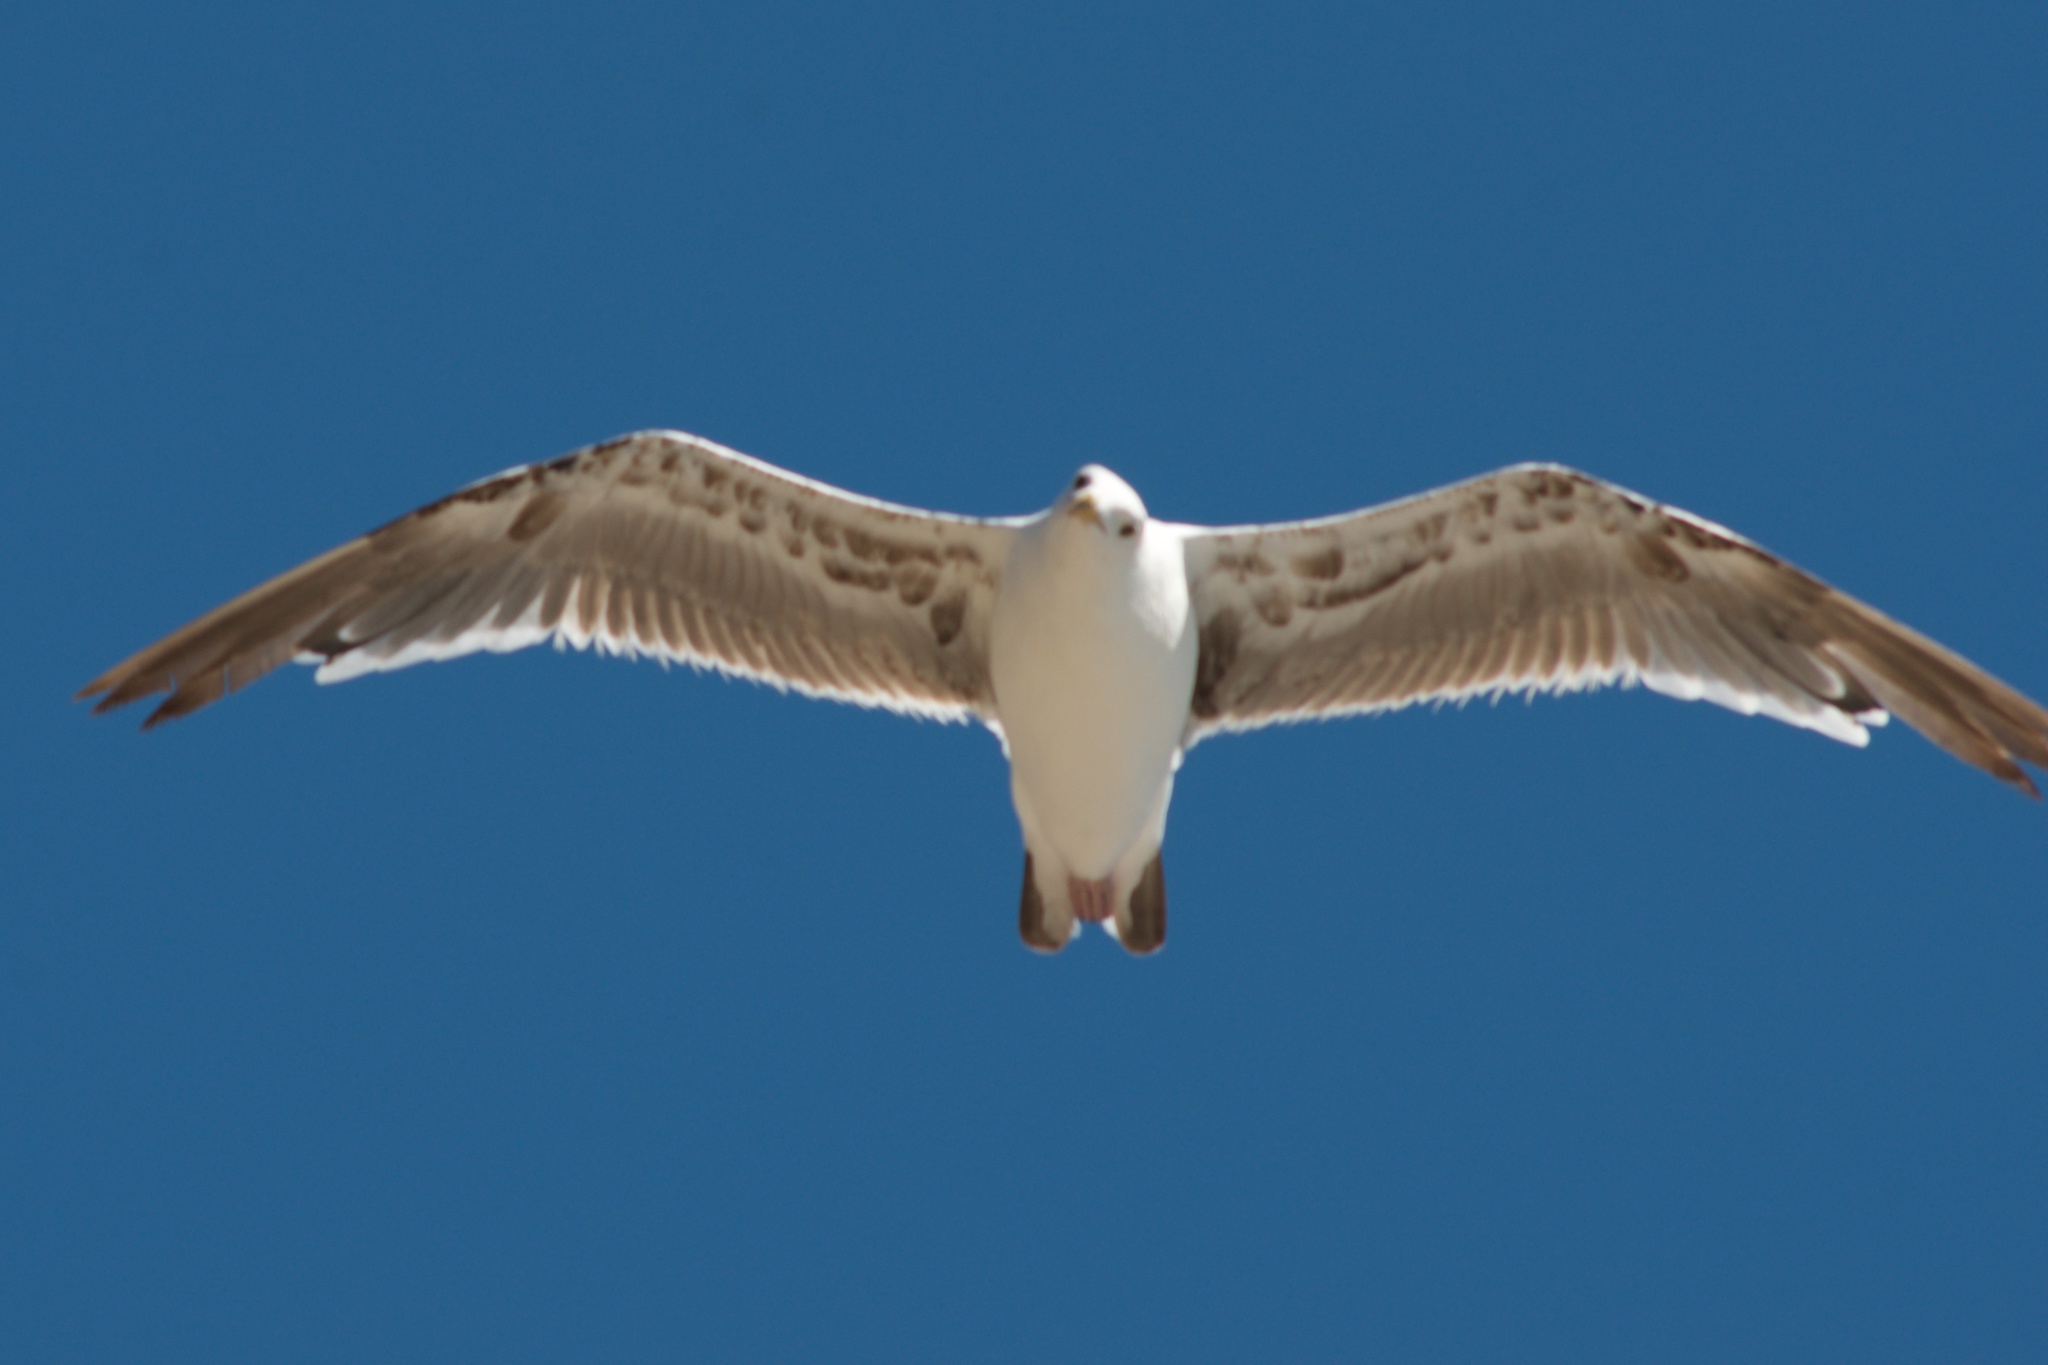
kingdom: Animalia
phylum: Chordata
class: Aves
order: Charadriiformes
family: Laridae
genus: Larus
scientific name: Larus occidentalis
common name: Western gull
